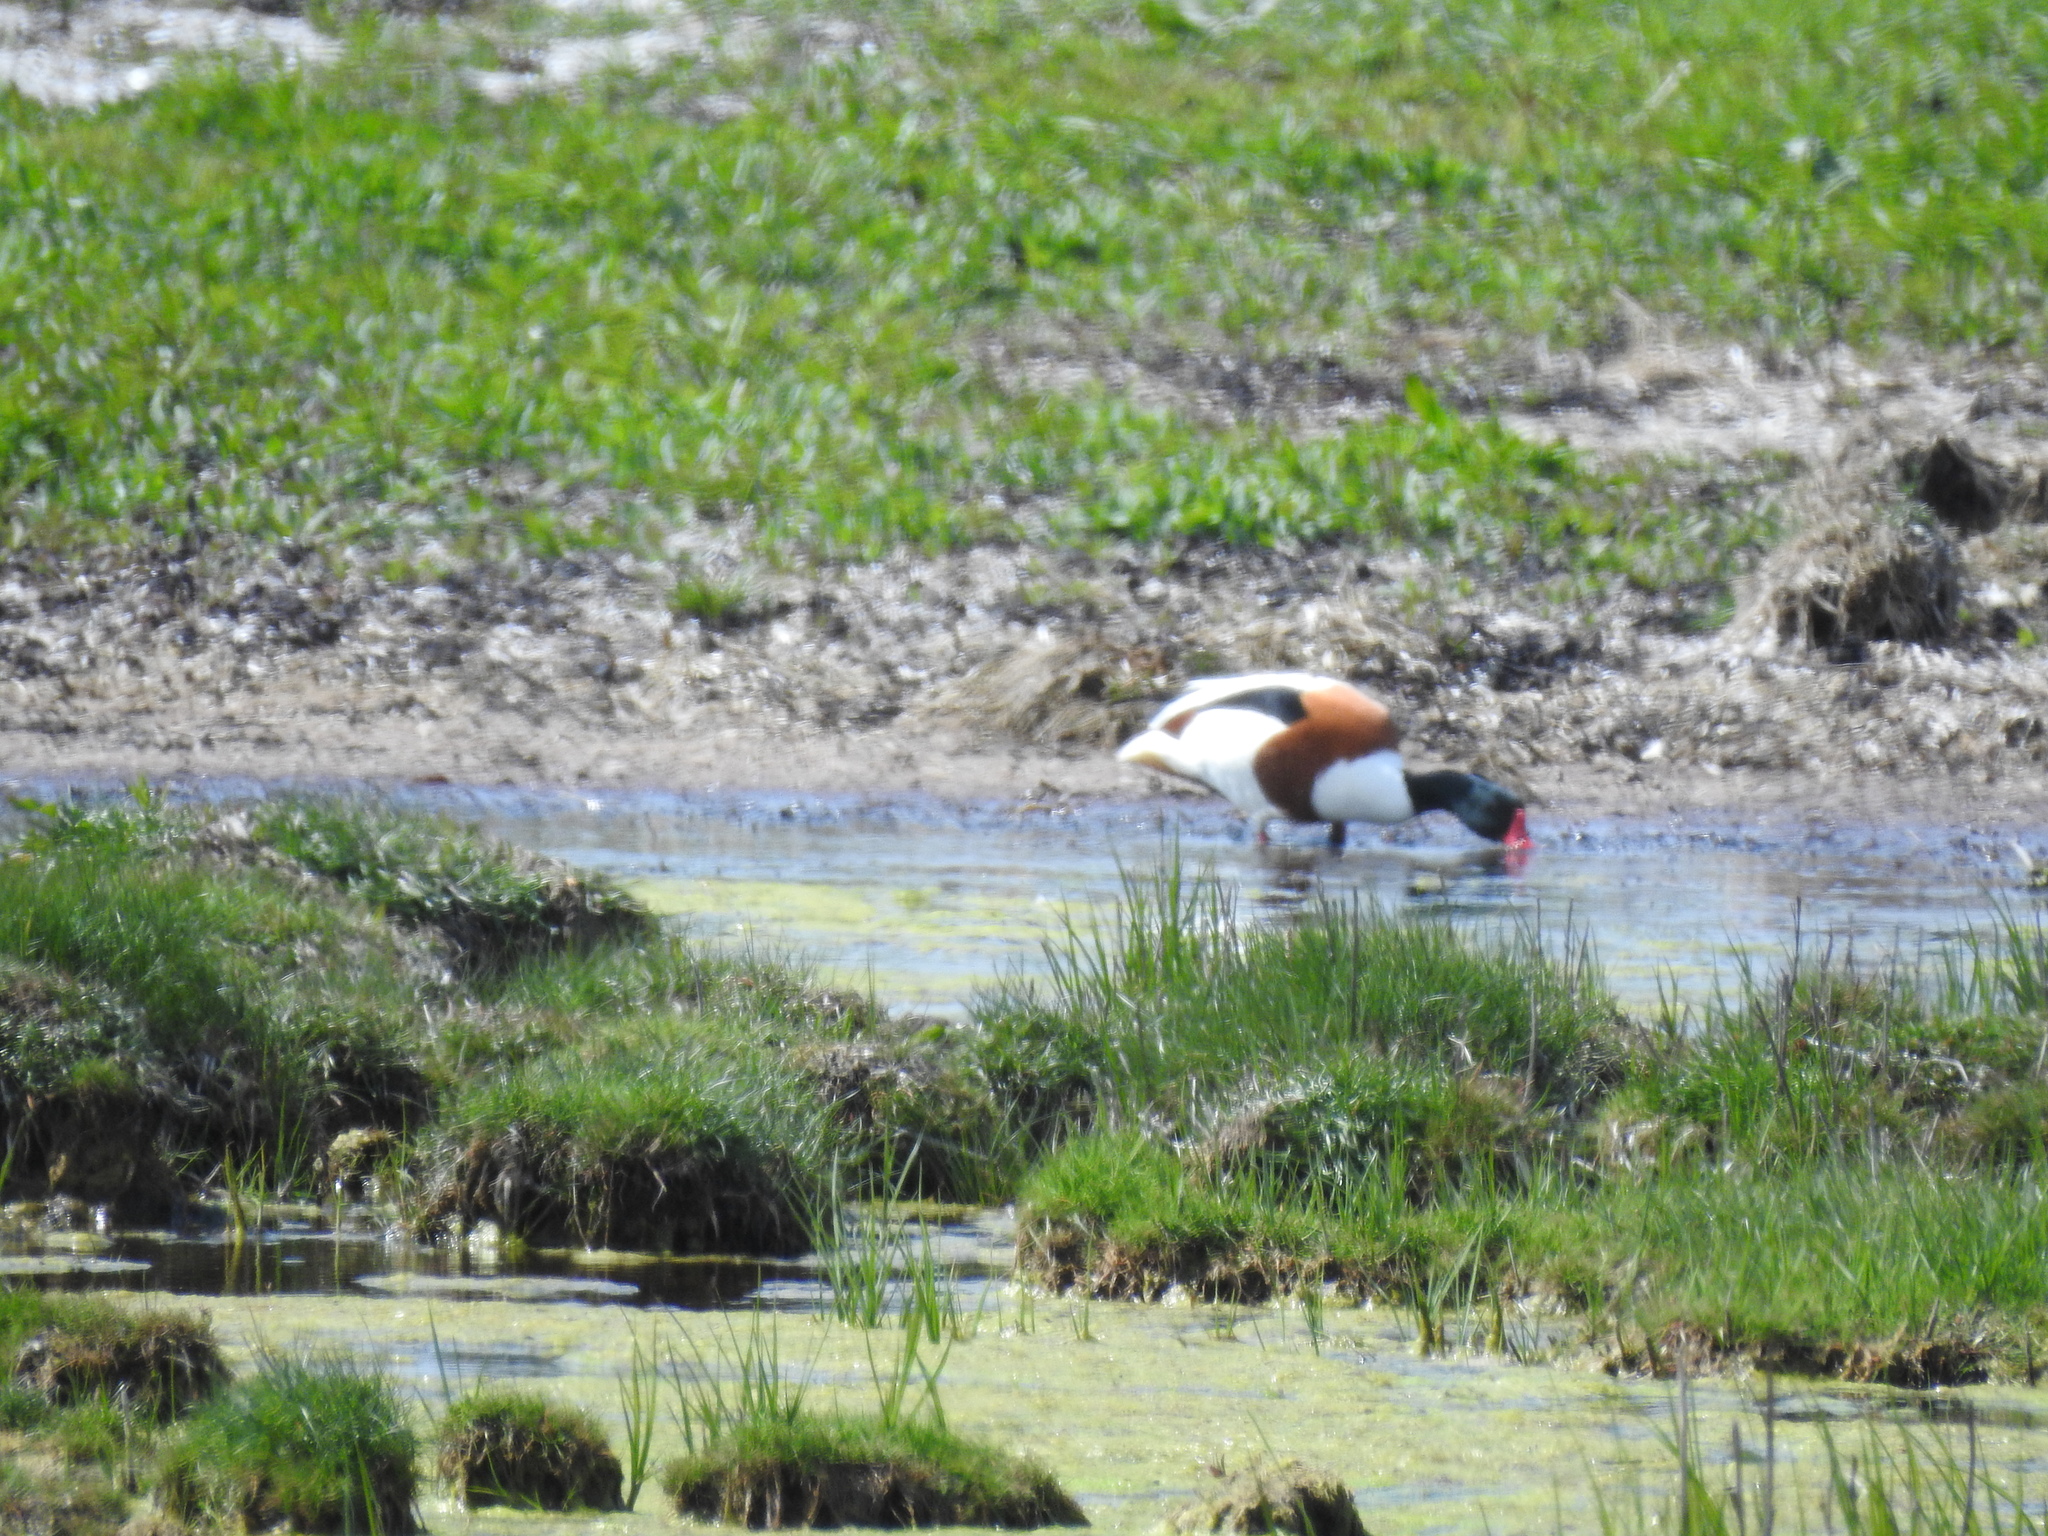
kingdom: Animalia
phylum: Chordata
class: Aves
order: Anseriformes
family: Anatidae
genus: Tadorna
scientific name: Tadorna tadorna
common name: Common shelduck
